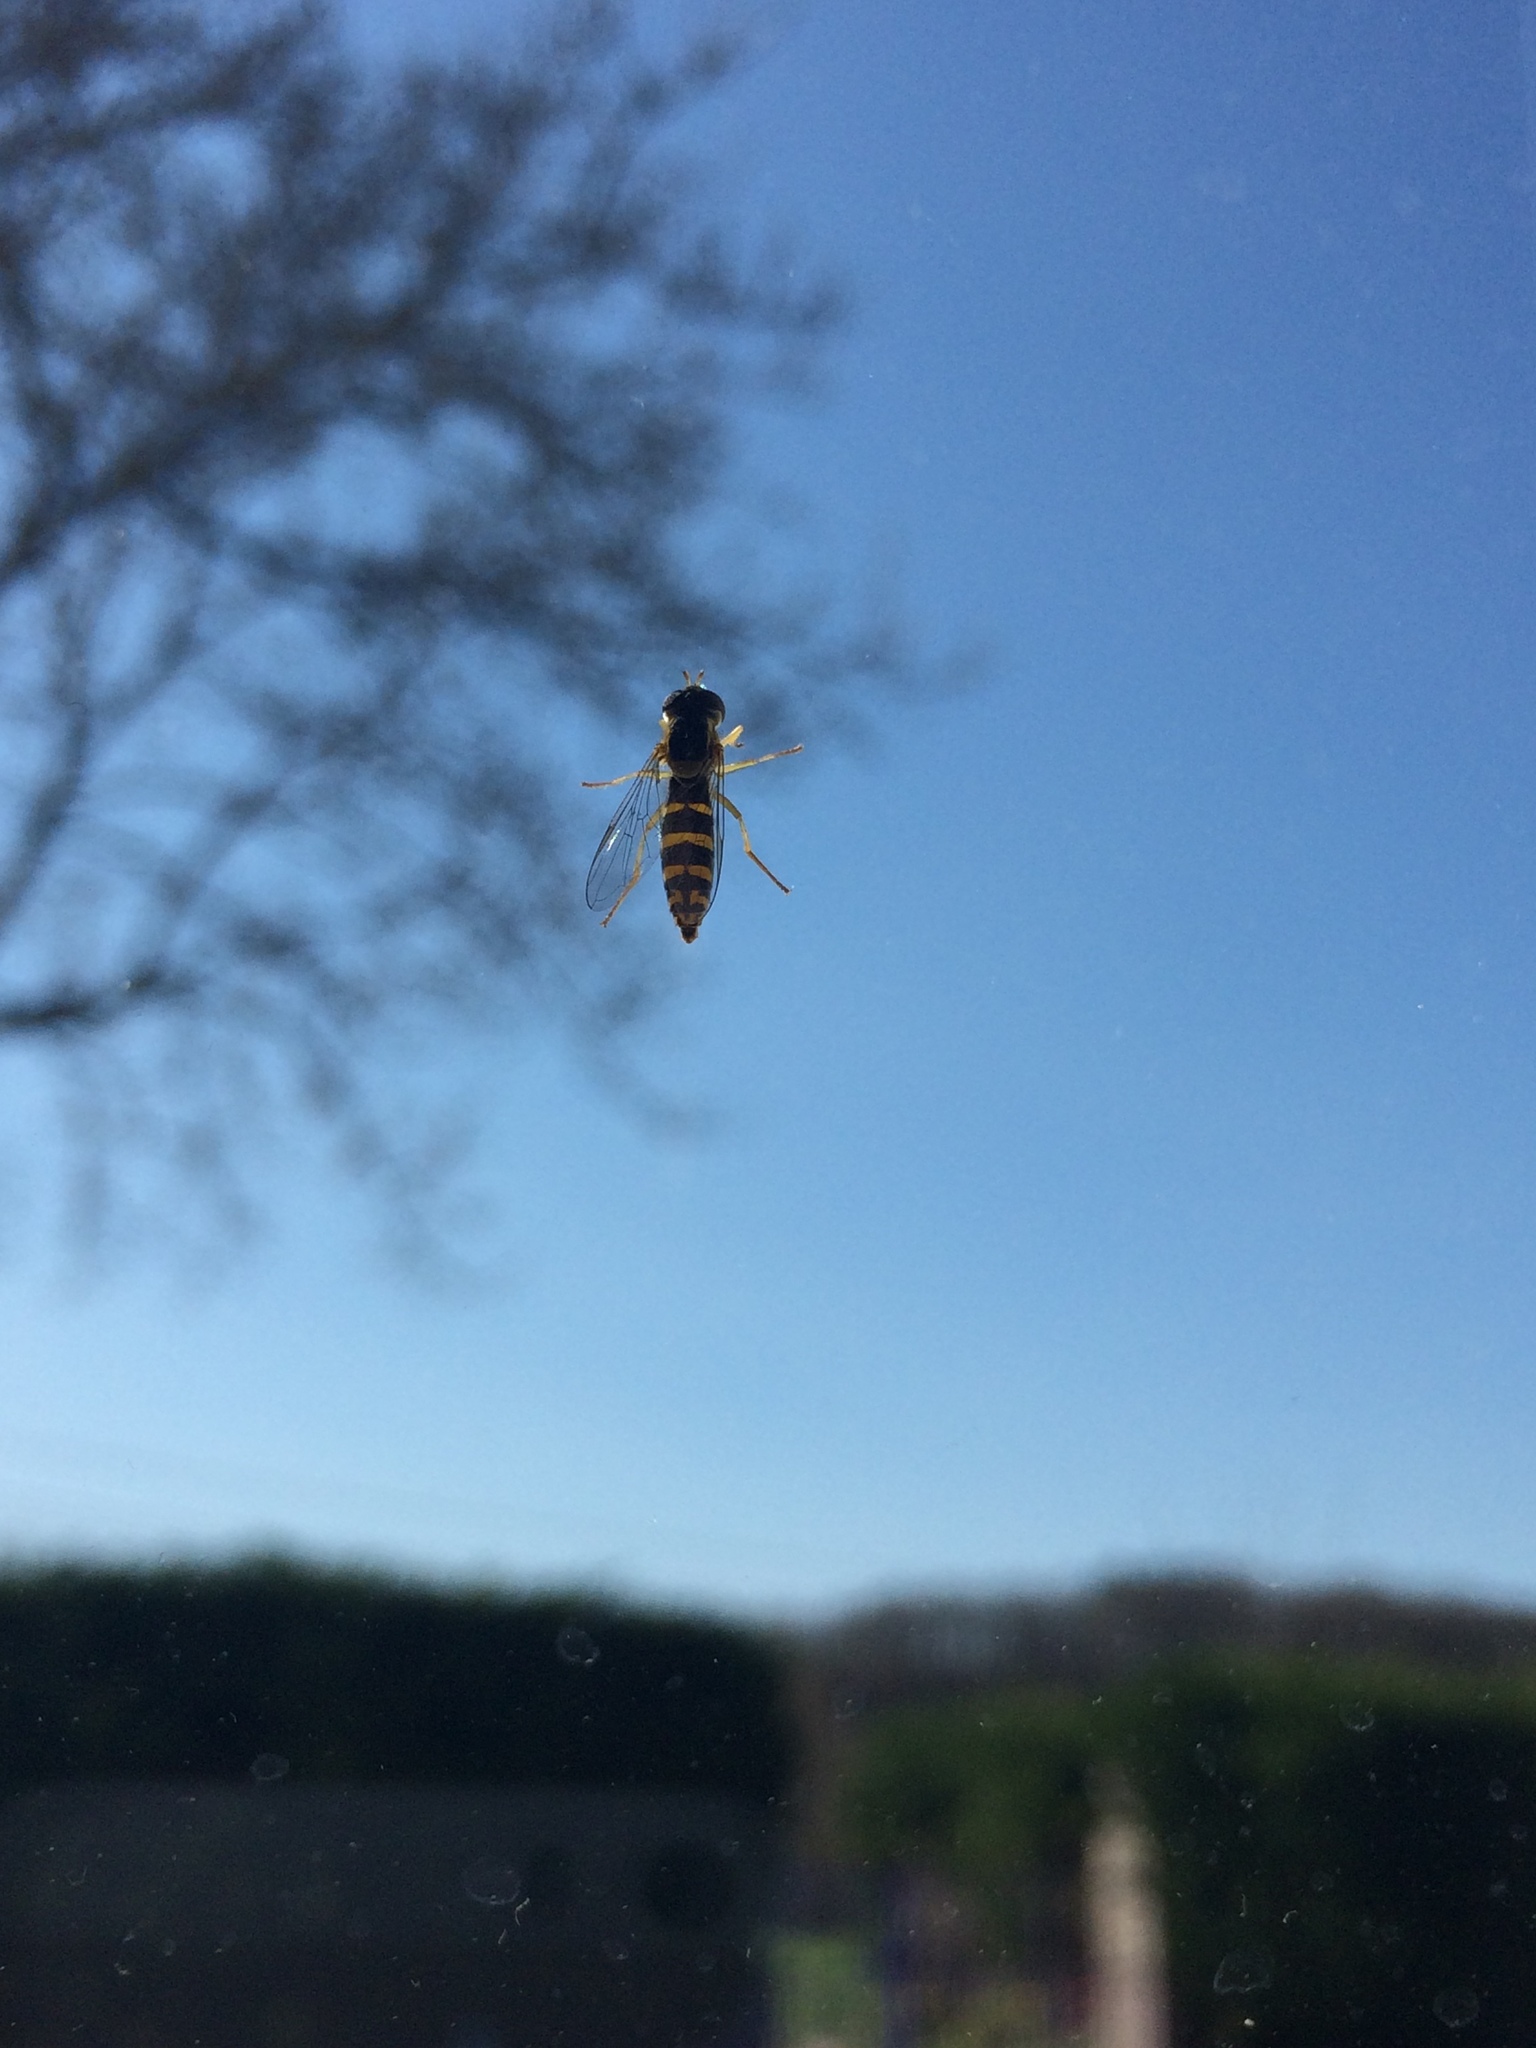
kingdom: Animalia
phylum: Arthropoda
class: Insecta
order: Diptera
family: Syrphidae
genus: Sphaerophoria
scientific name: Sphaerophoria
